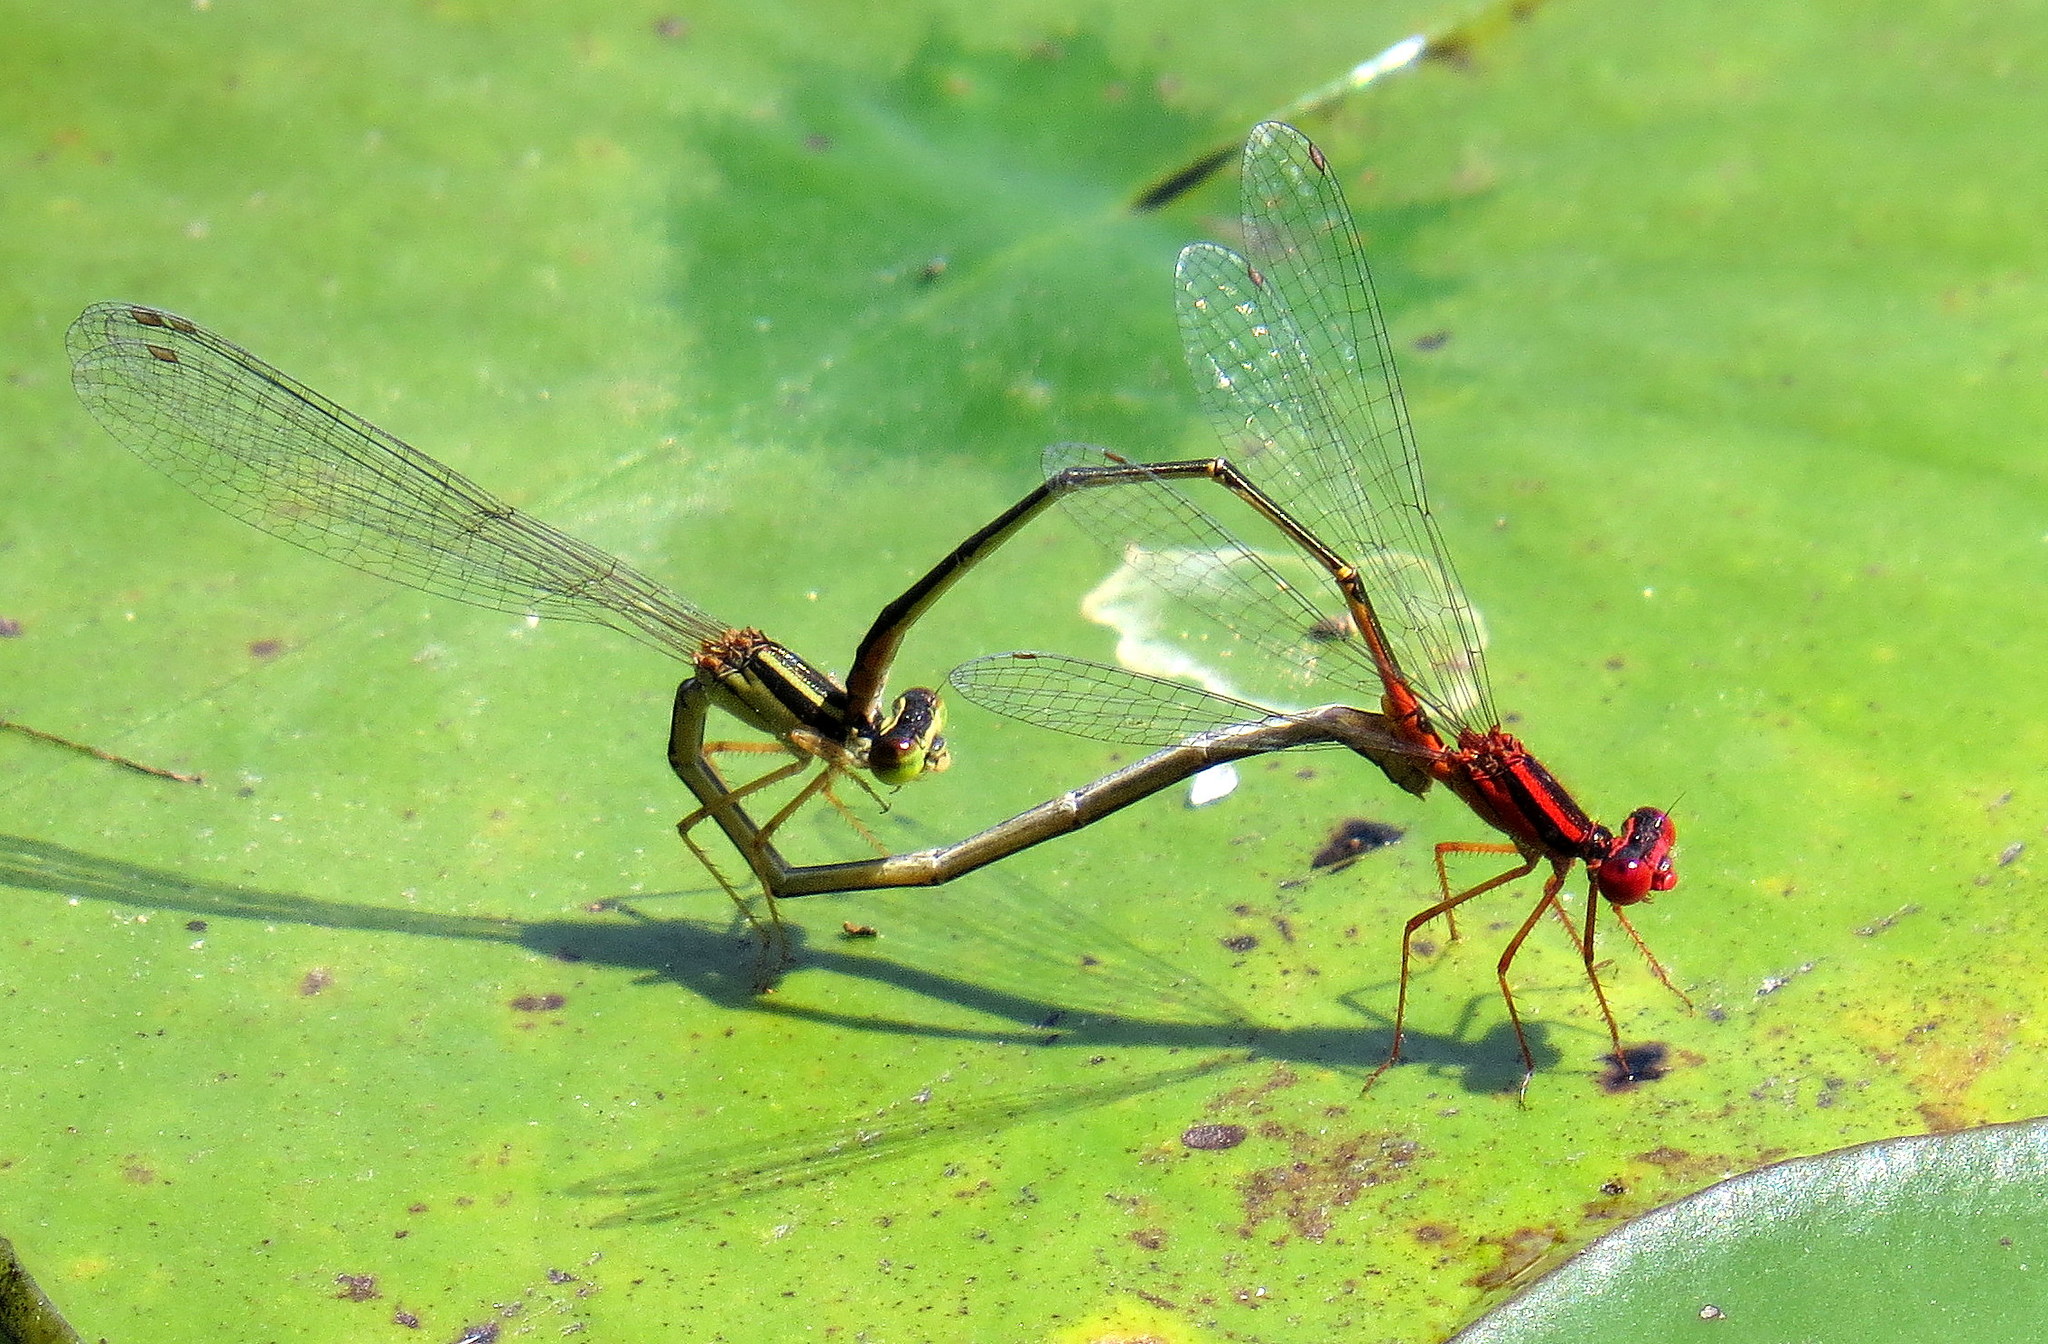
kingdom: Animalia
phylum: Arthropoda
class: Insecta
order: Odonata
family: Coenagrionidae
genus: Enallagma
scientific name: Enallagma pictum
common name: Scarlet bluet
